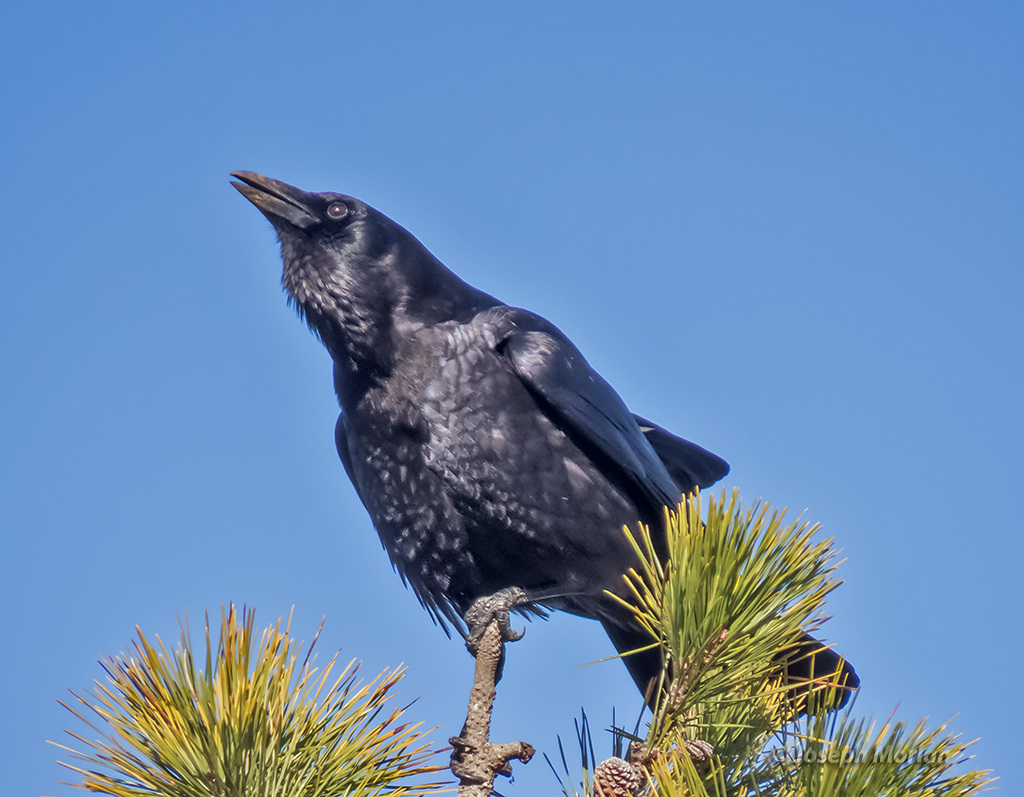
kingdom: Animalia
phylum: Chordata
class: Aves
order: Passeriformes
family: Corvidae
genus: Corvus
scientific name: Corvus brachyrhynchos
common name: American crow
